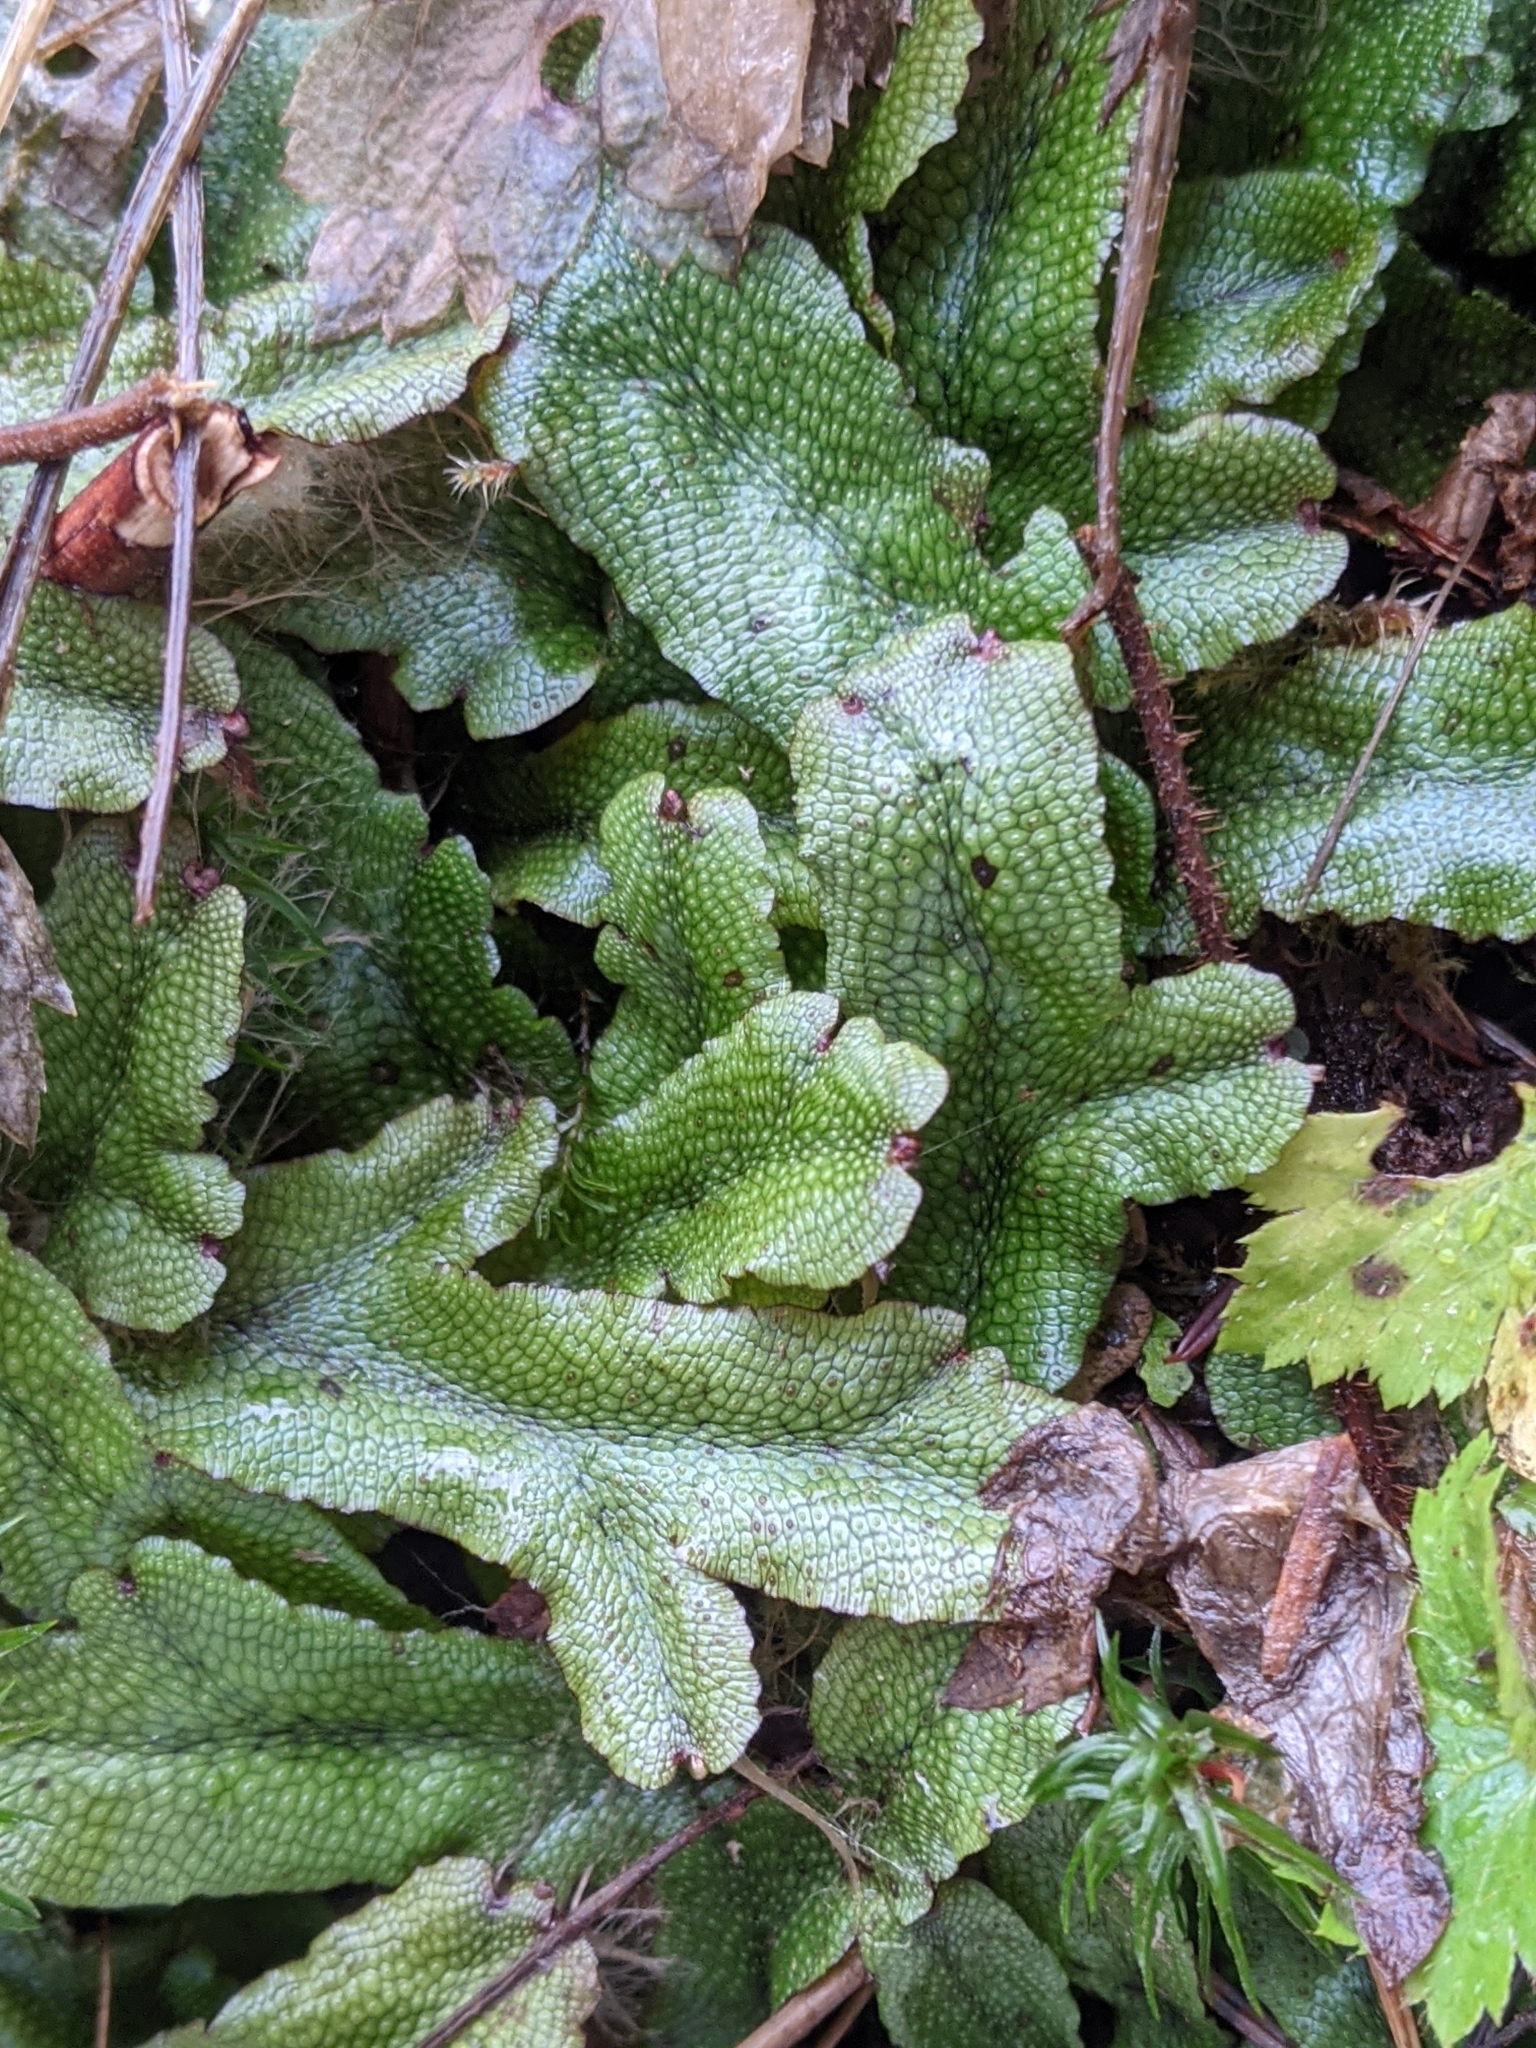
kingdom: Plantae
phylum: Marchantiophyta
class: Marchantiopsida
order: Marchantiales
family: Conocephalaceae
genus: Conocephalum
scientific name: Conocephalum salebrosum
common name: Cat-tongue liverwort
